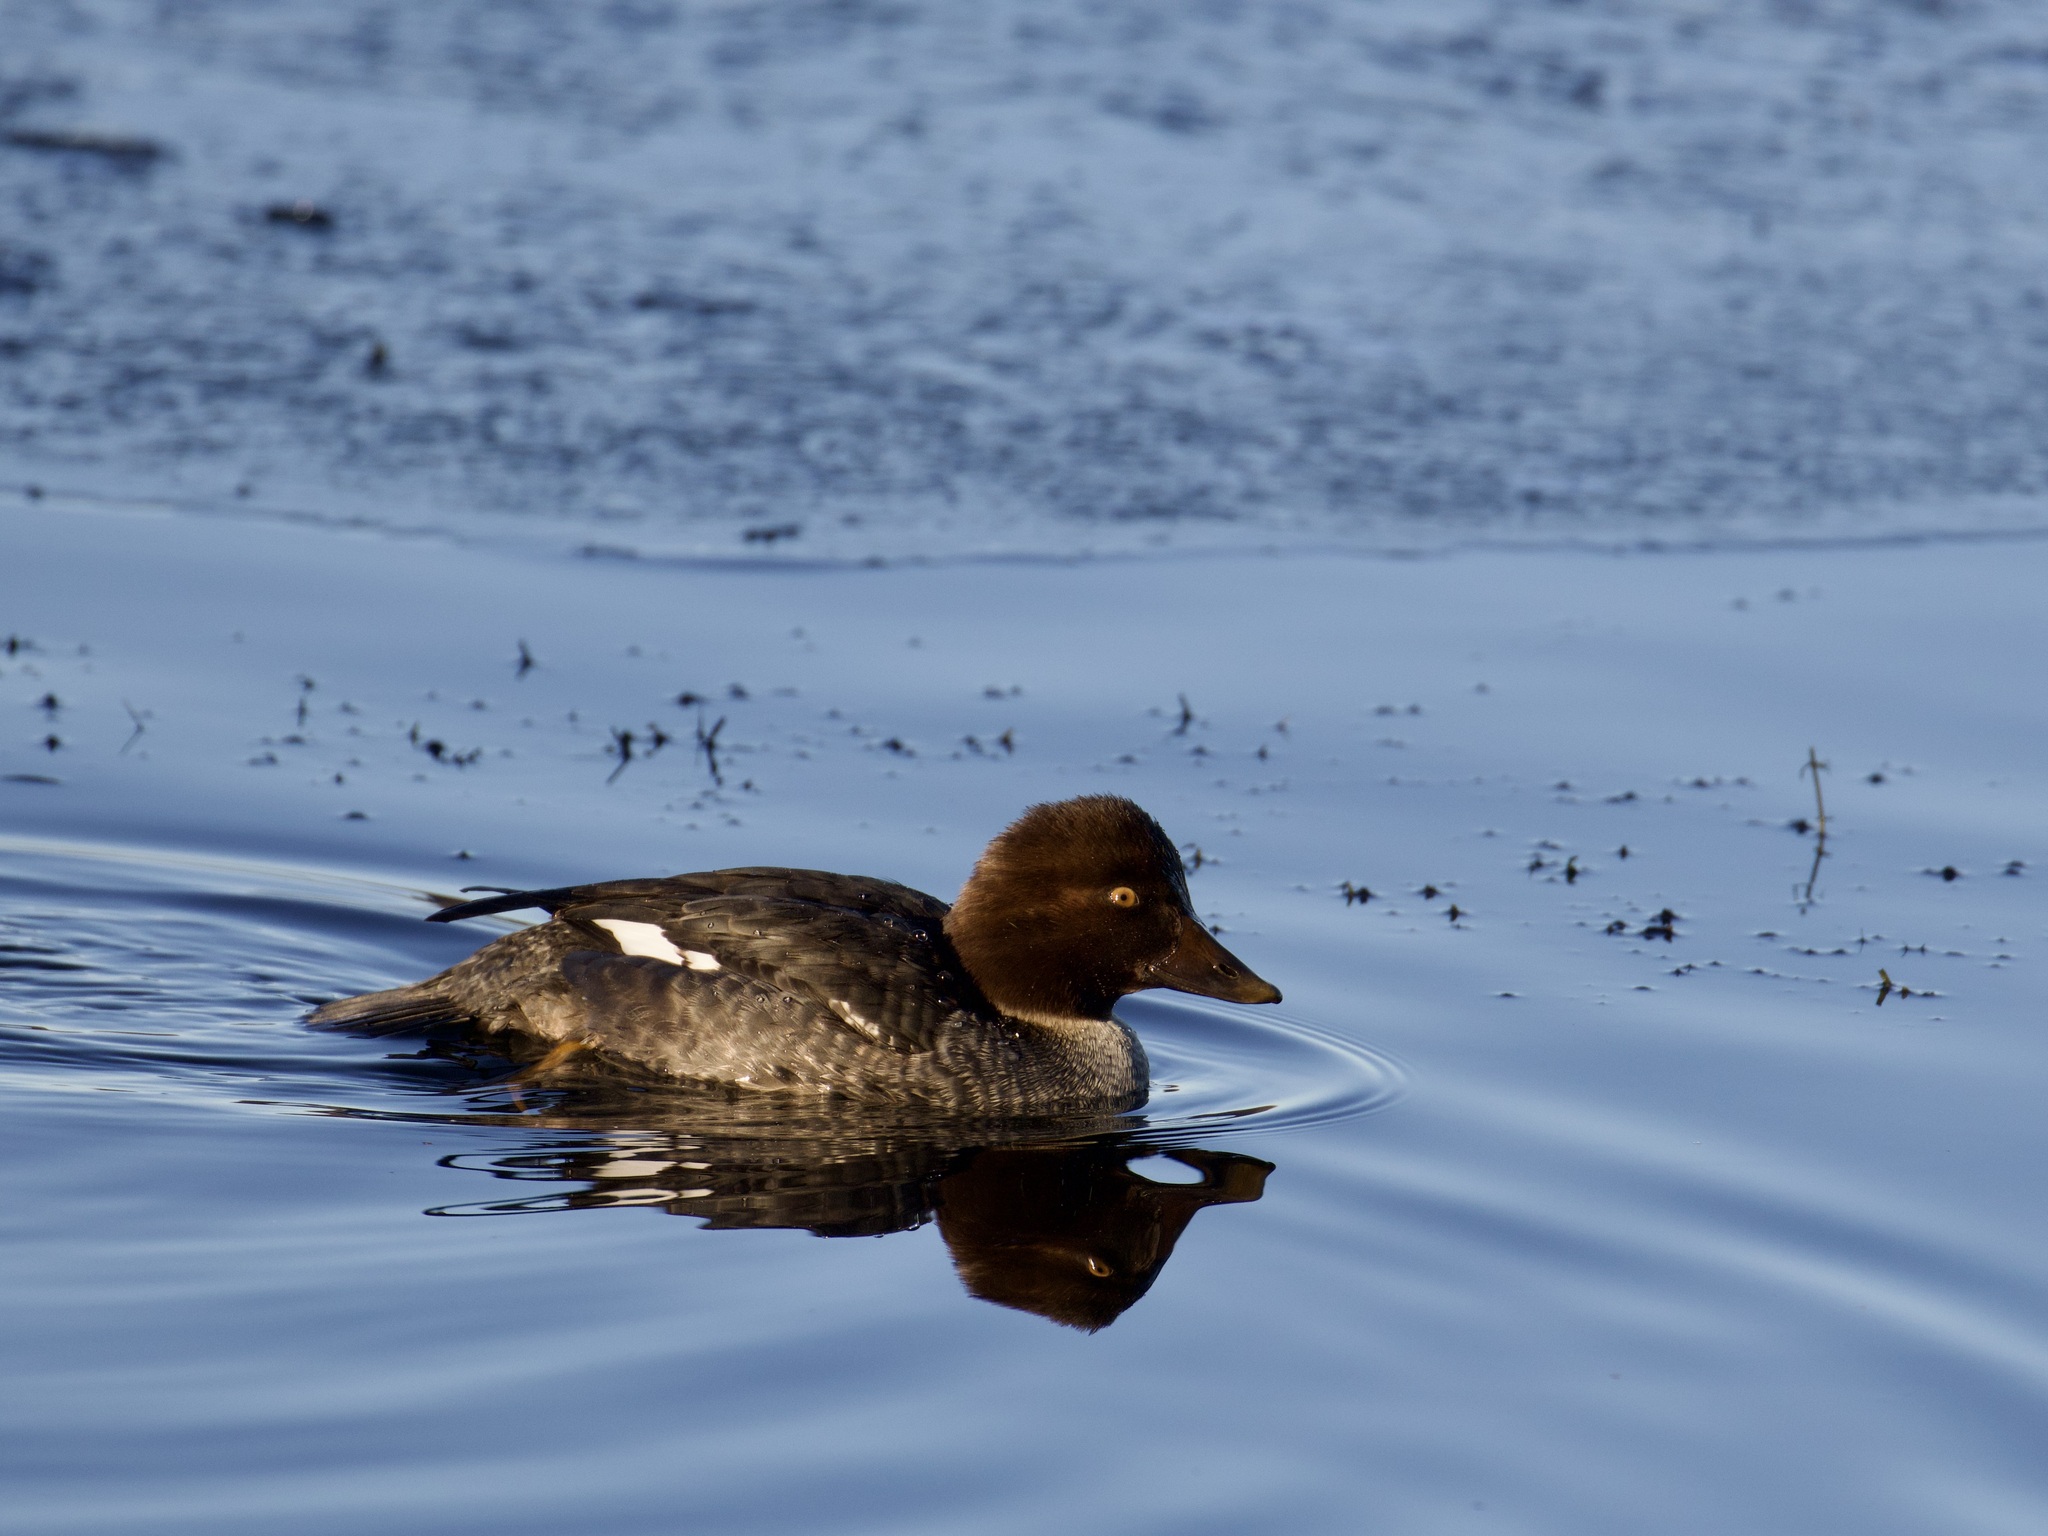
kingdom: Animalia
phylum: Chordata
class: Aves
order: Anseriformes
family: Anatidae
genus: Bucephala
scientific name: Bucephala clangula
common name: Common goldeneye
